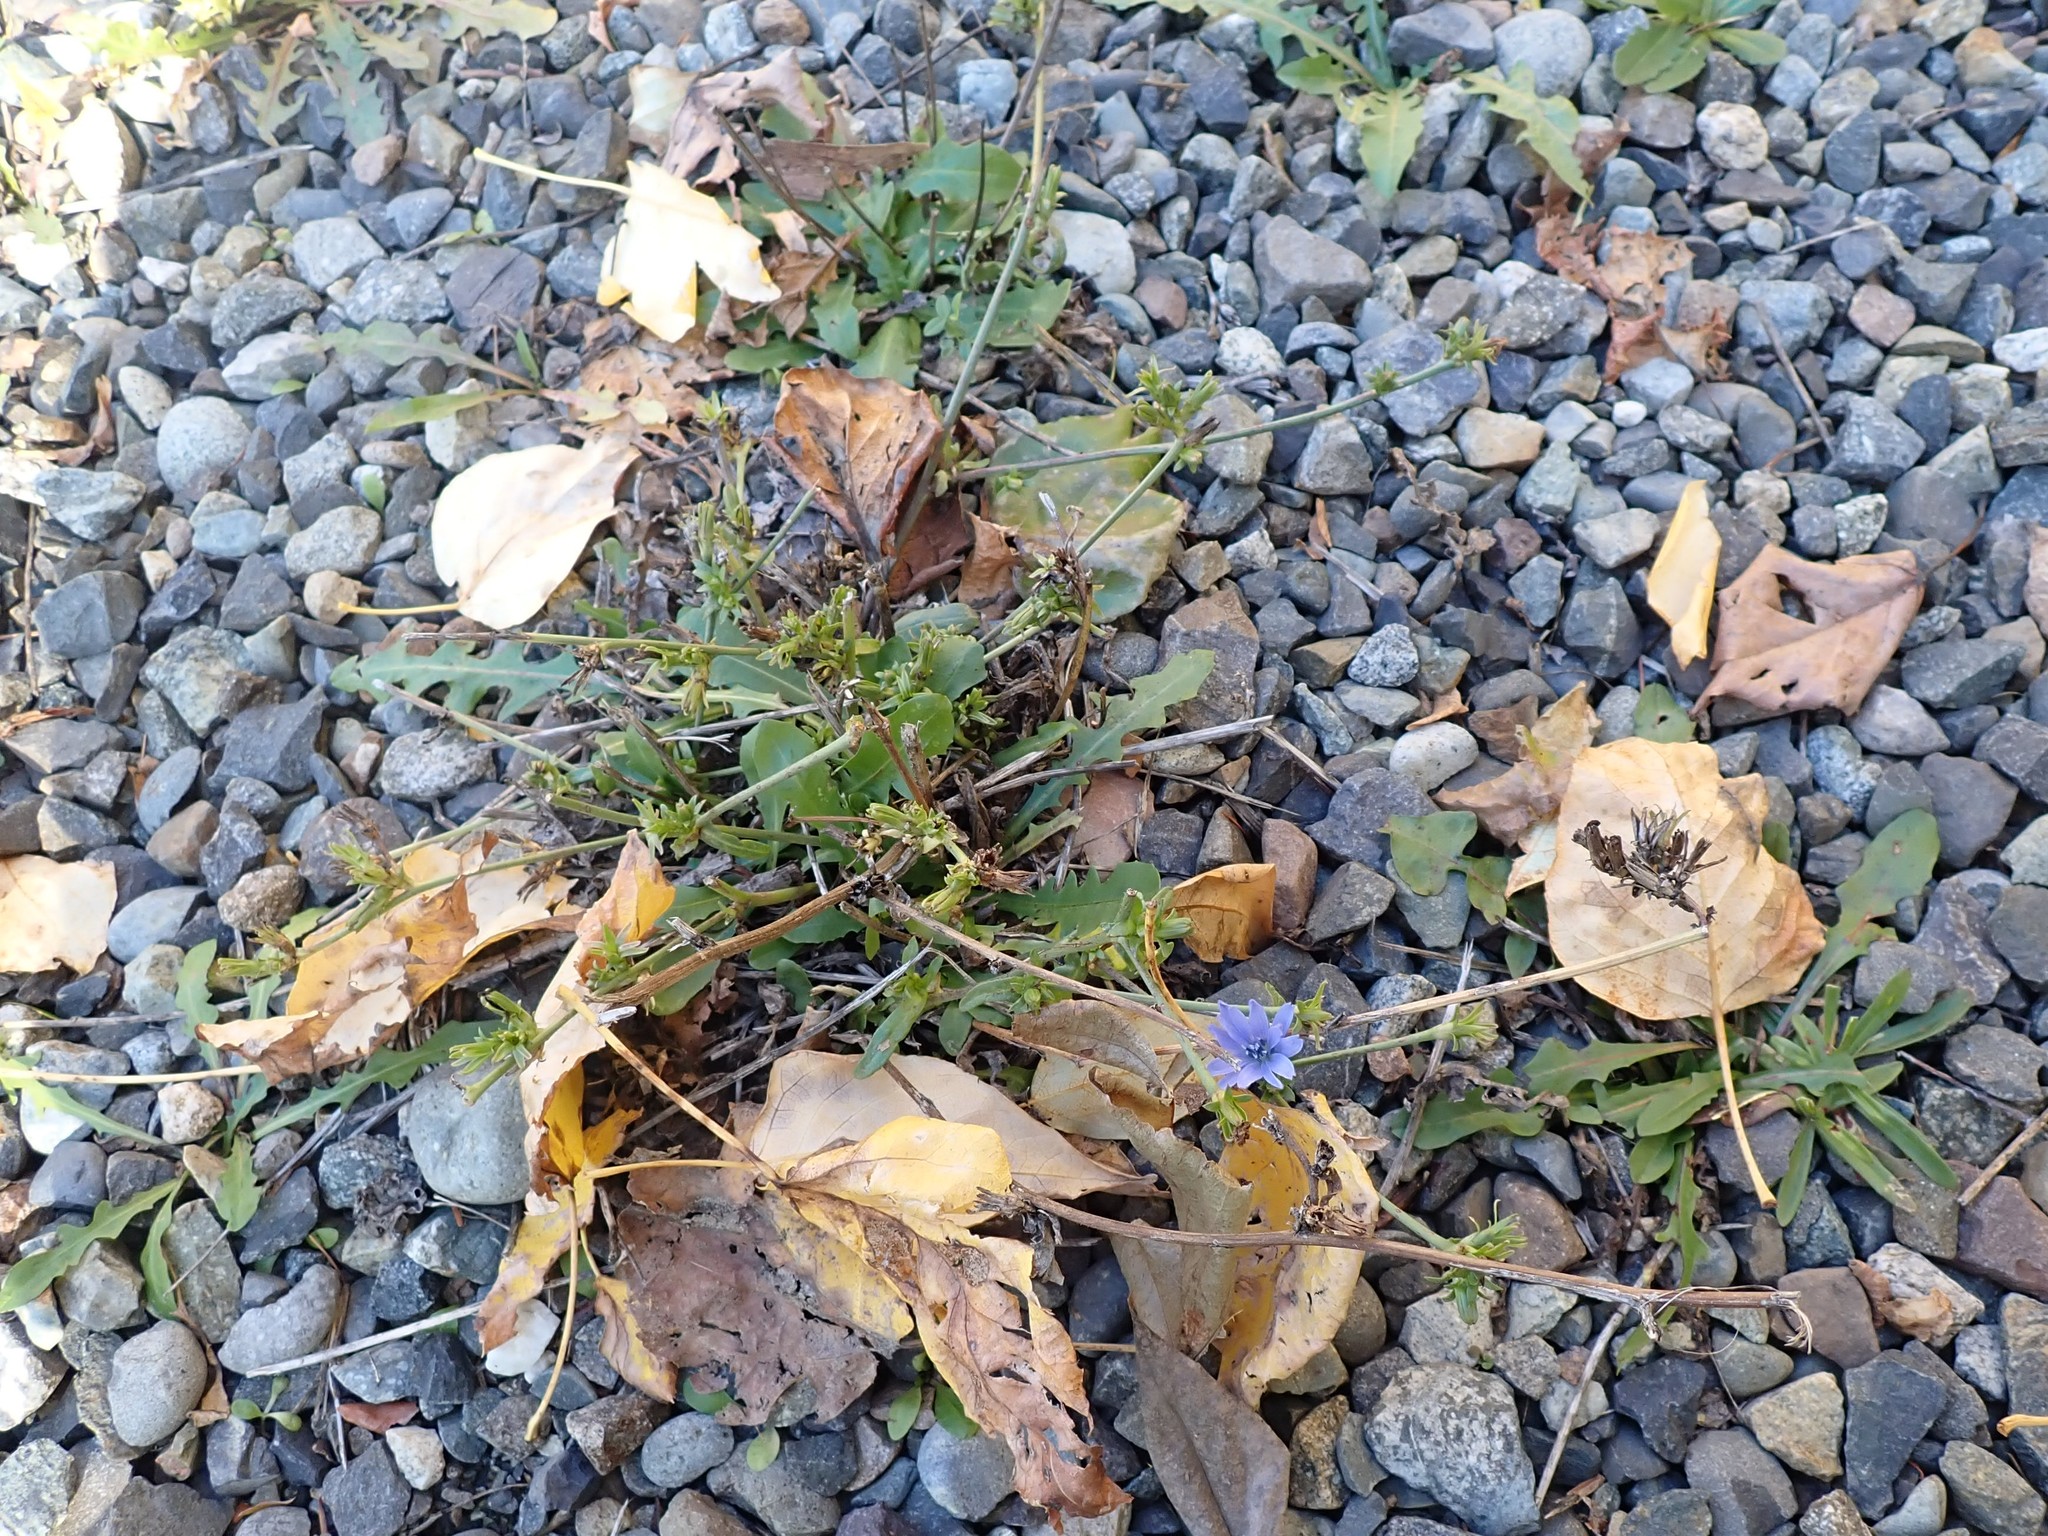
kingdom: Plantae
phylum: Tracheophyta
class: Magnoliopsida
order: Asterales
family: Asteraceae
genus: Cichorium
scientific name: Cichorium intybus
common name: Chicory
